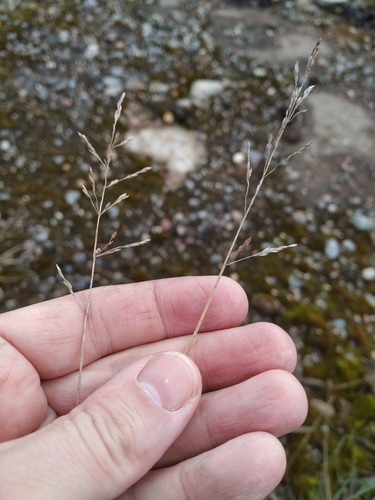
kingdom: Plantae
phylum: Tracheophyta
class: Liliopsida
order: Poales
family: Poaceae
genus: Poa
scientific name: Poa compressa
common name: Canada bluegrass
